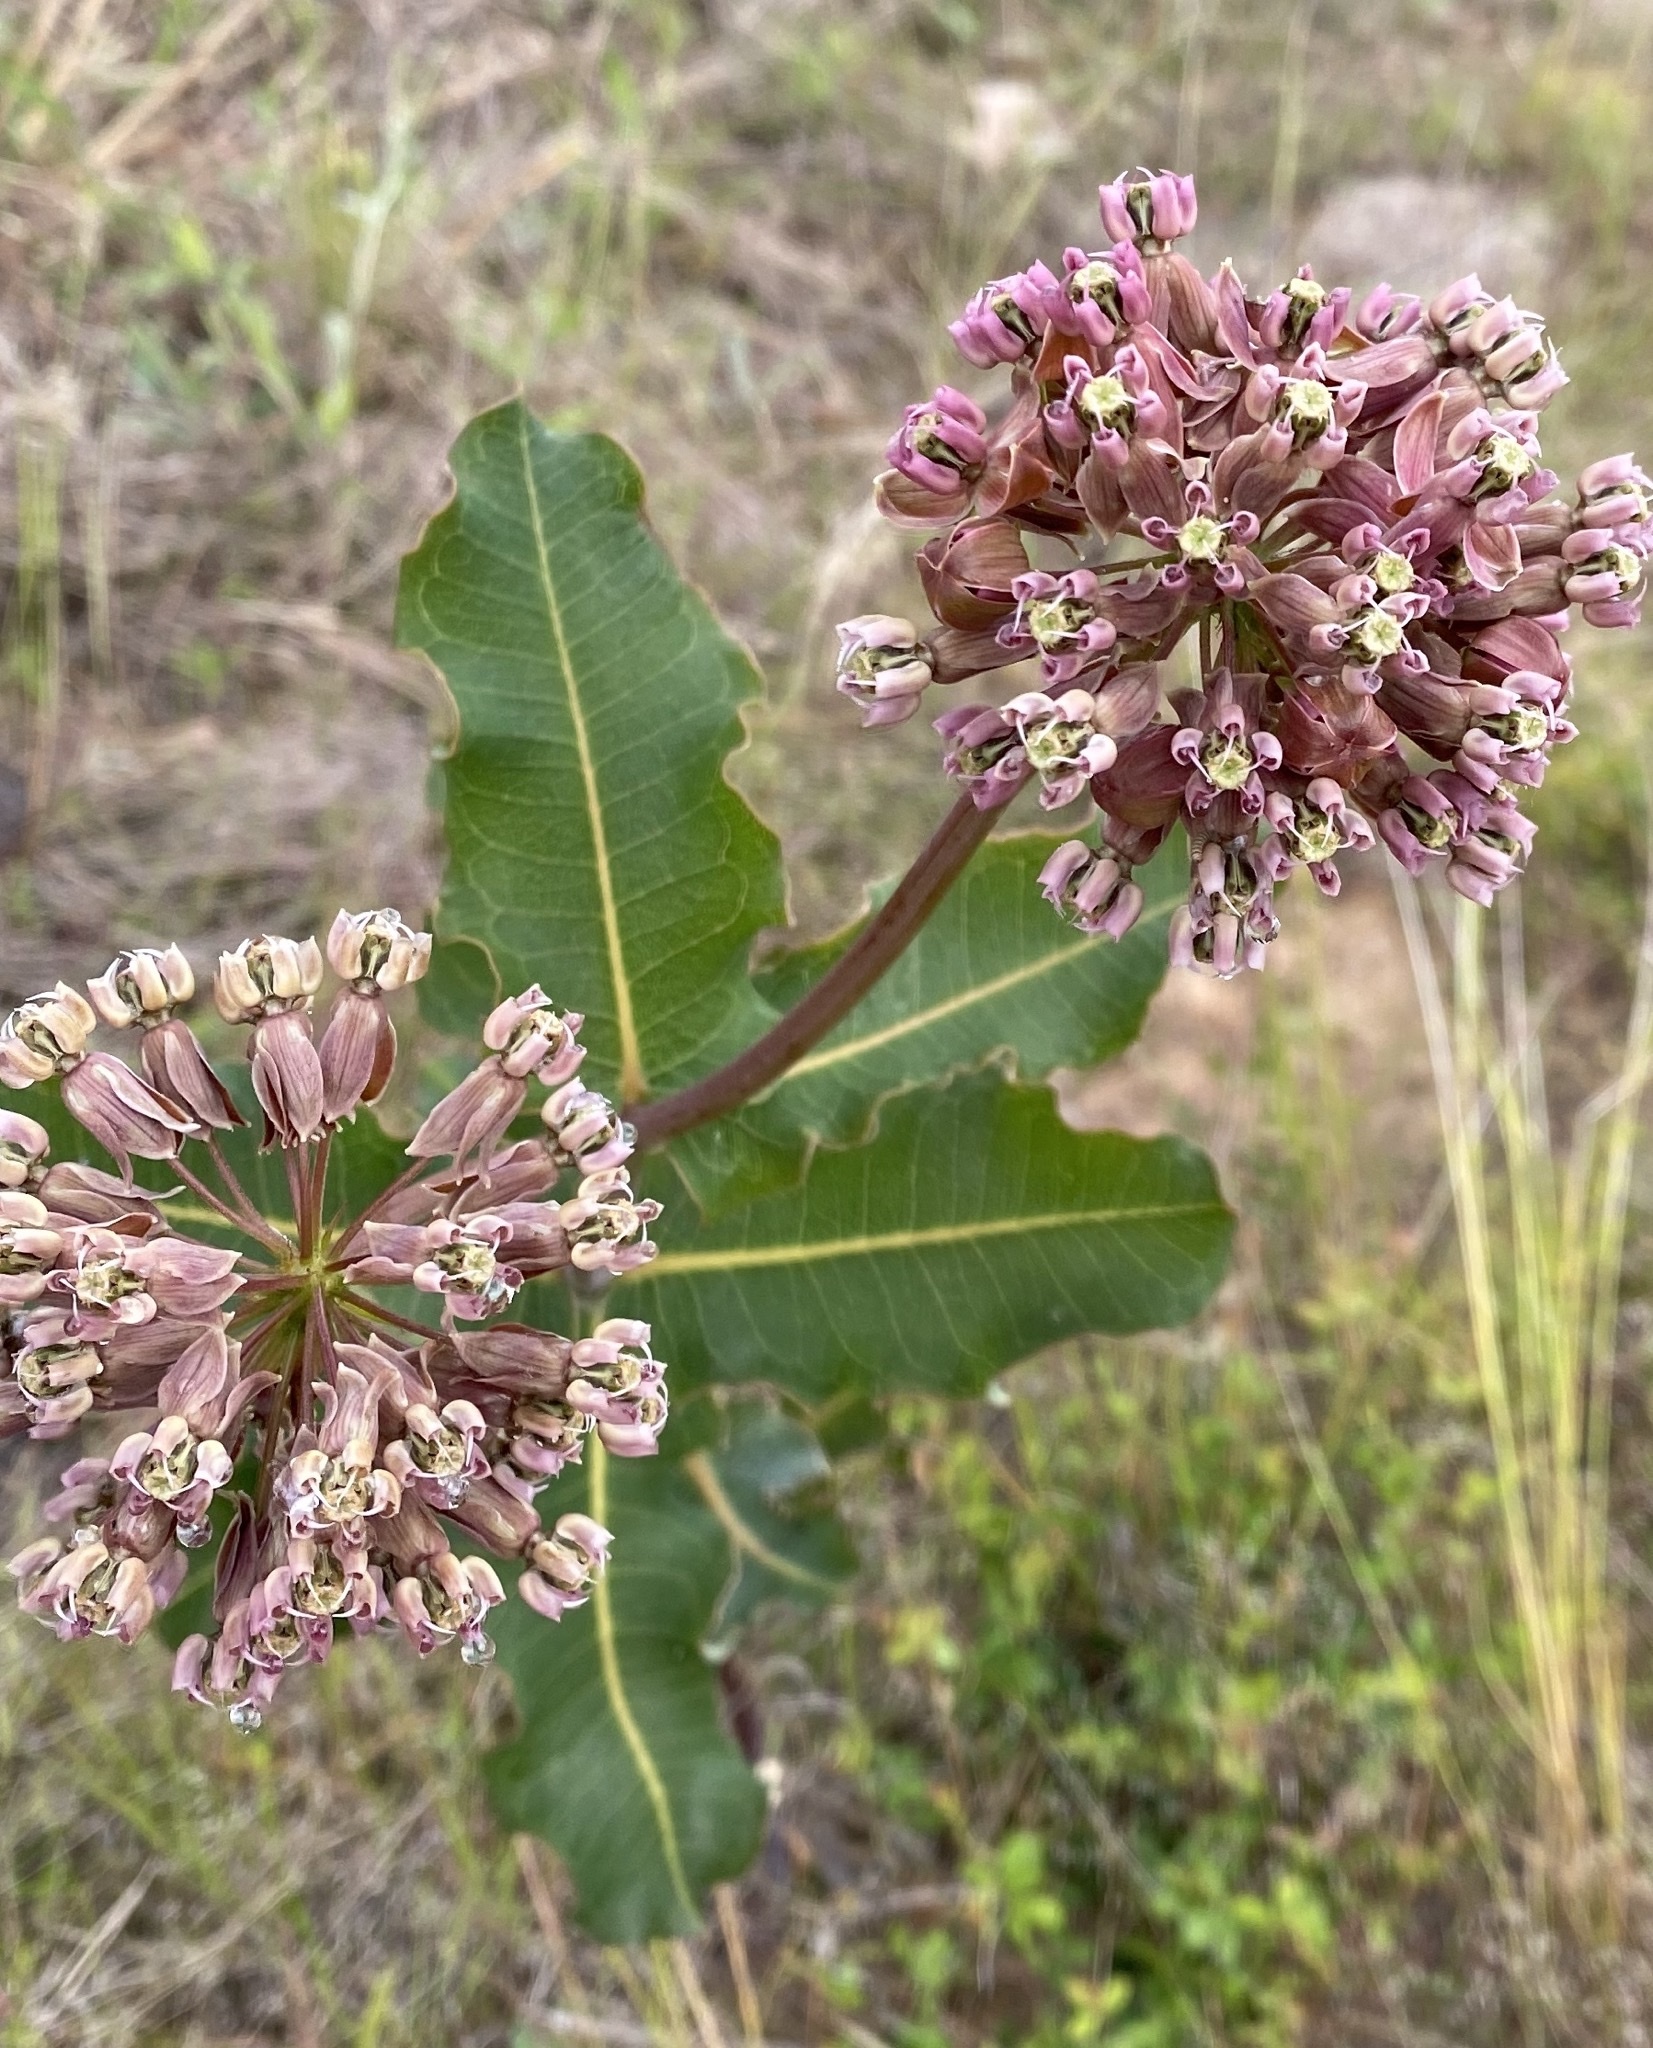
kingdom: Plantae
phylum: Tracheophyta
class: Magnoliopsida
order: Gentianales
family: Apocynaceae
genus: Asclepias
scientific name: Asclepias amplexicaulis
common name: Blunt-leaf milkweed
